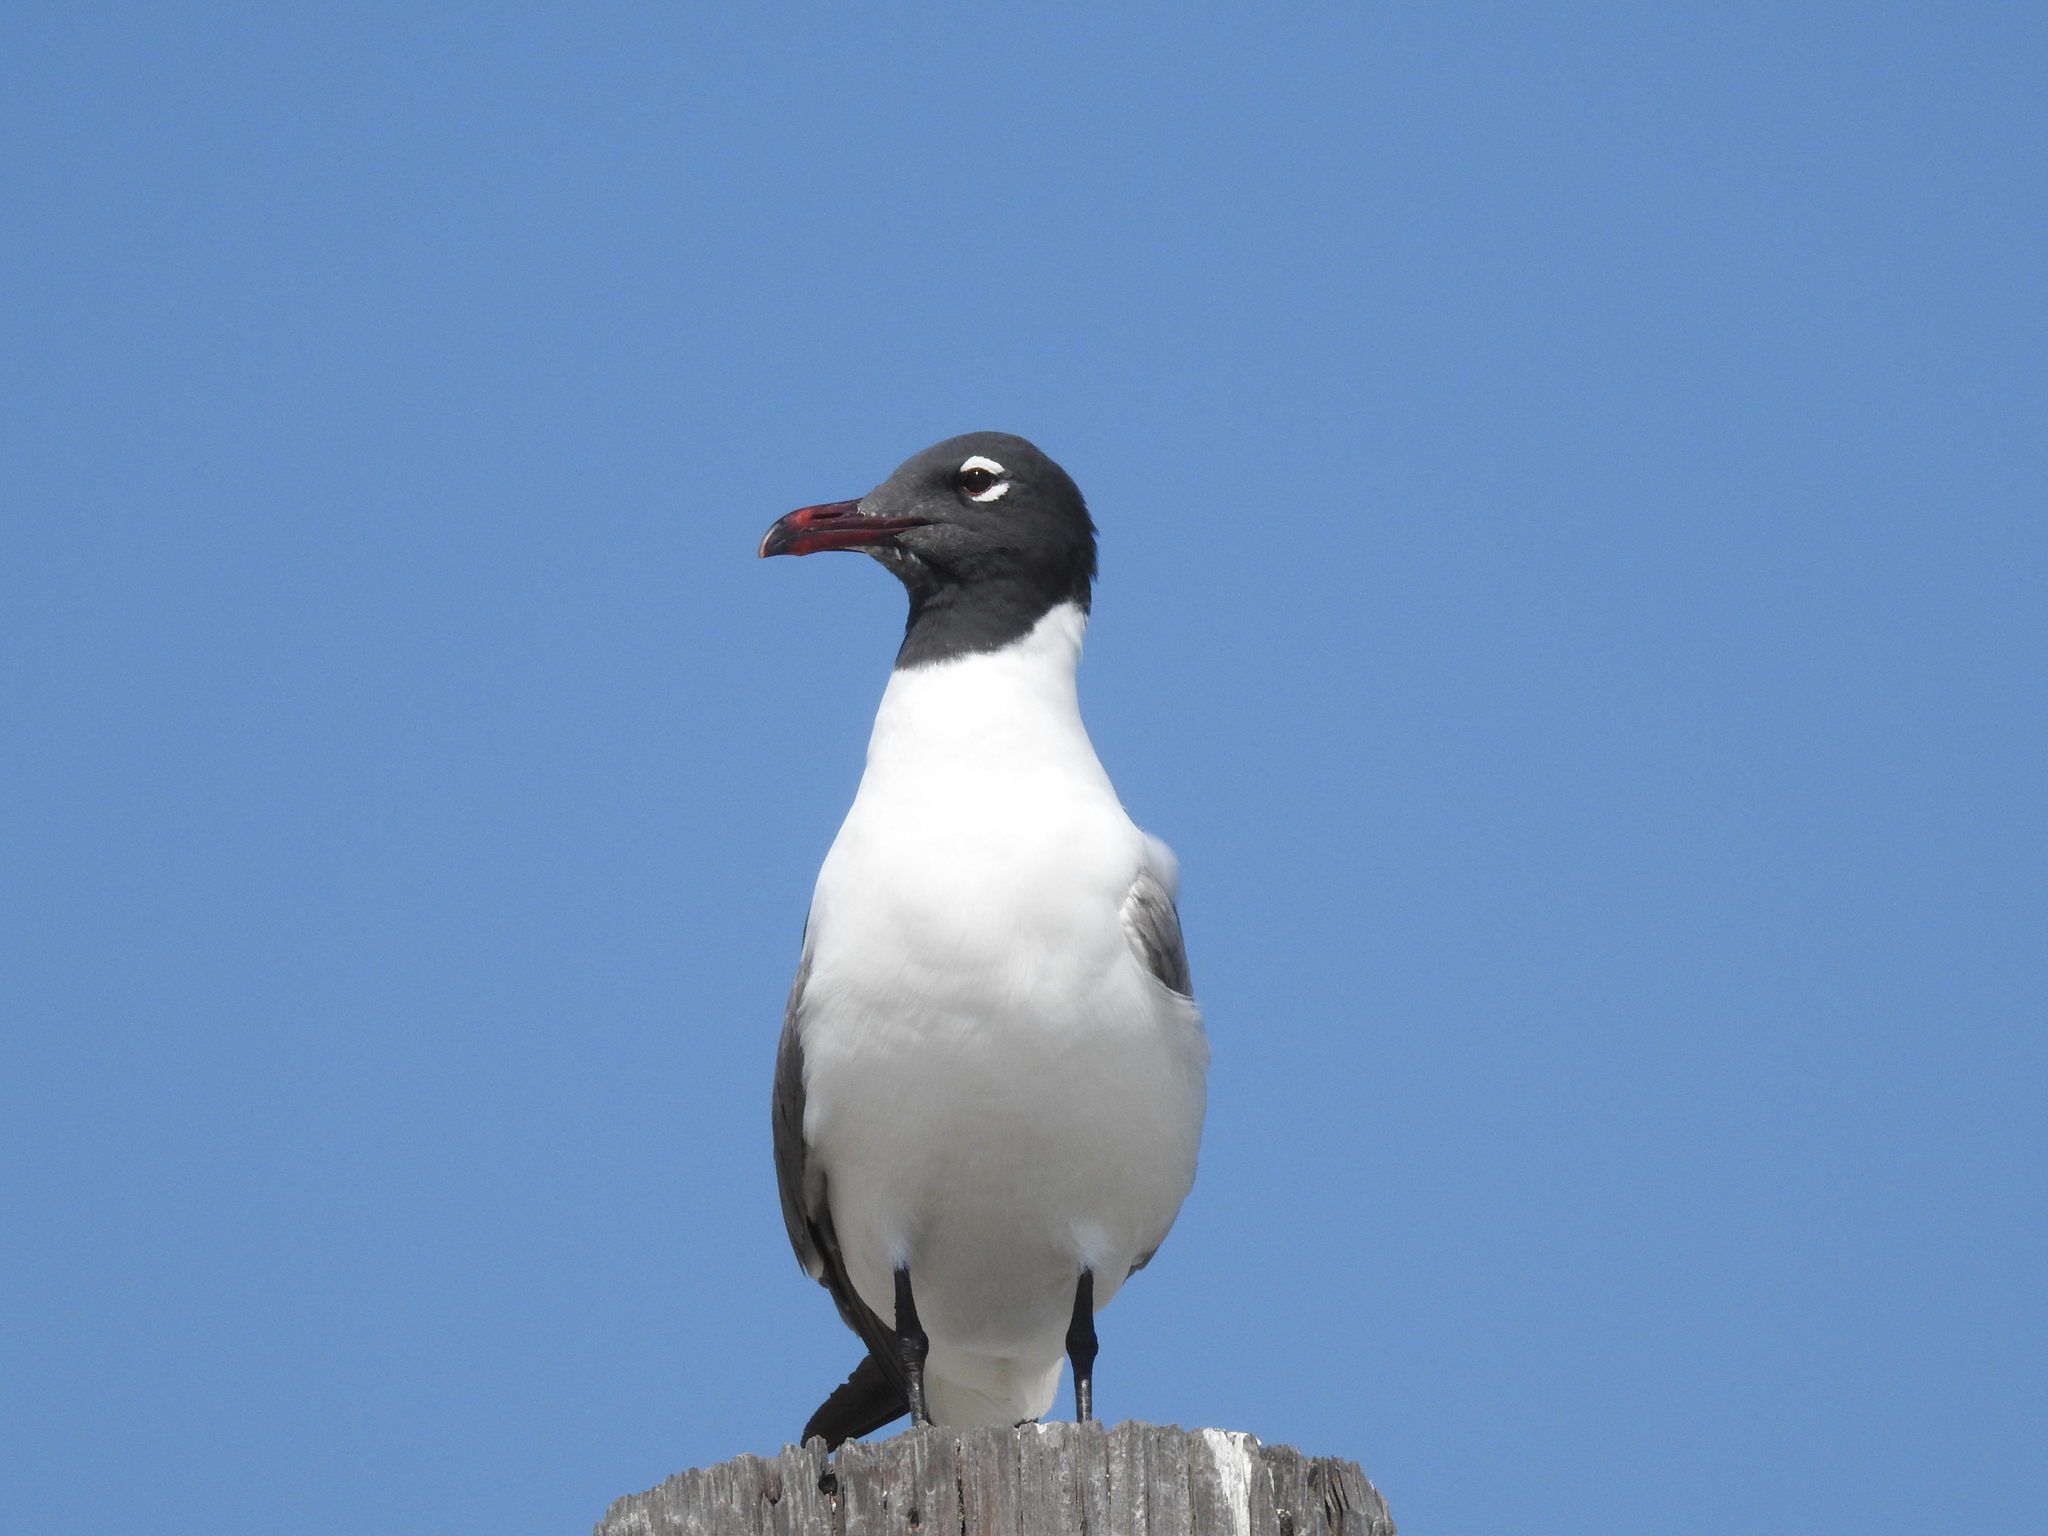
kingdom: Animalia
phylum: Chordata
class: Aves
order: Charadriiformes
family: Laridae
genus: Leucophaeus
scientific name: Leucophaeus atricilla
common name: Laughing gull
